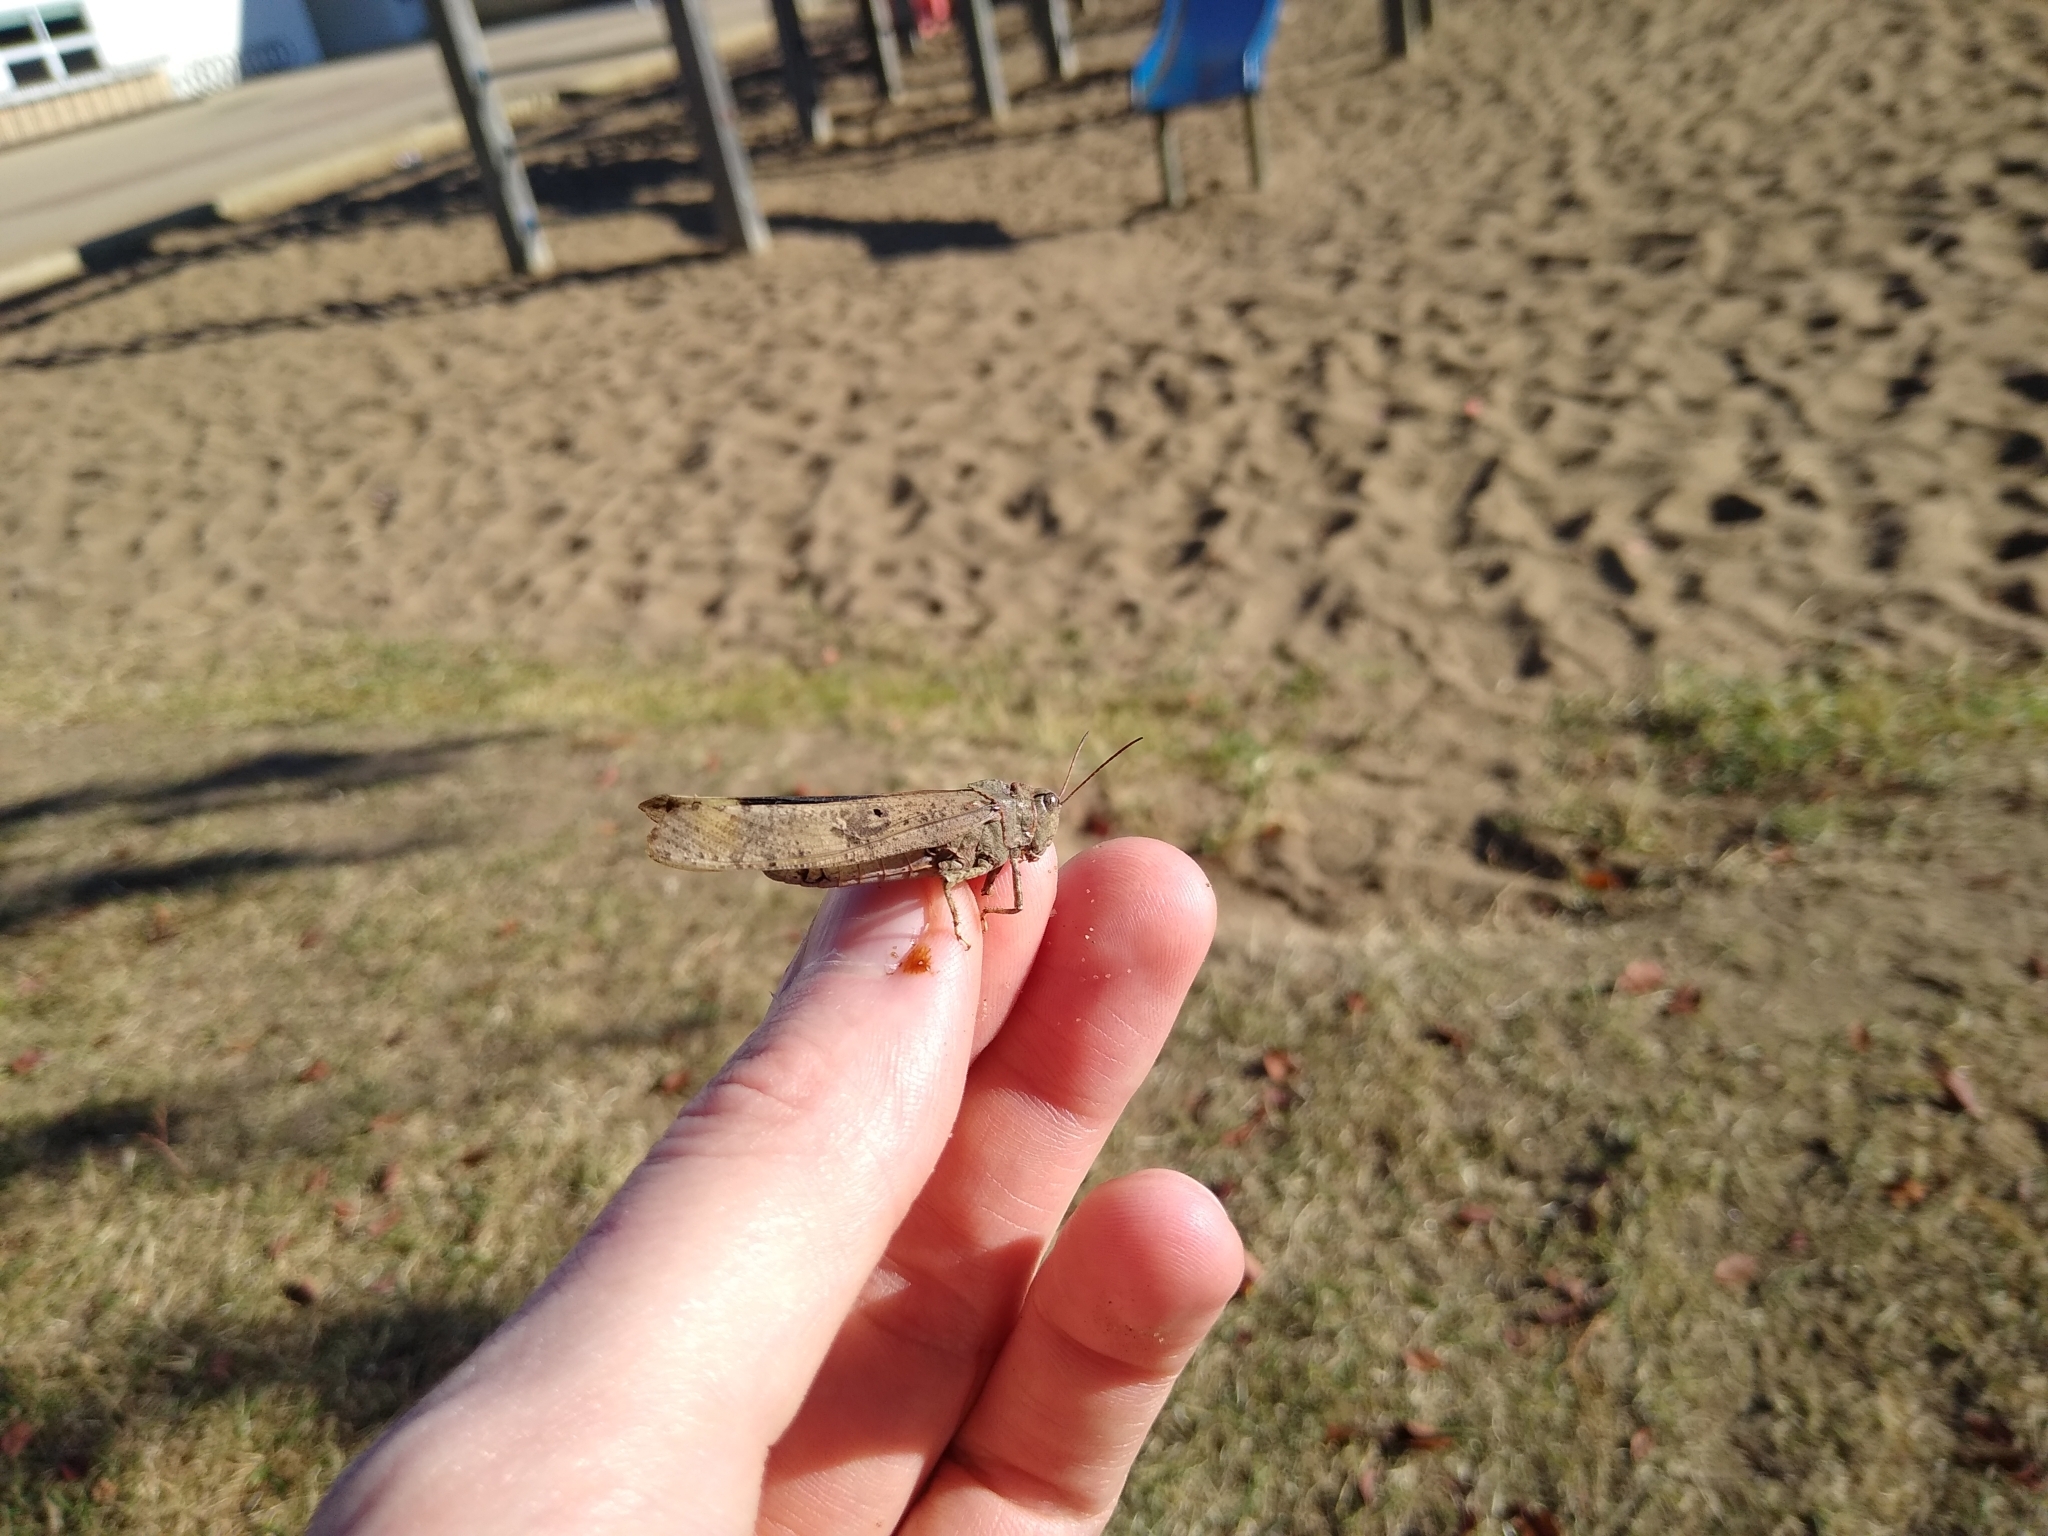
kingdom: Animalia
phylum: Arthropoda
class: Insecta
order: Orthoptera
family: Acrididae
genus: Dissosteira
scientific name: Dissosteira carolina
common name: Carolina grasshopper
